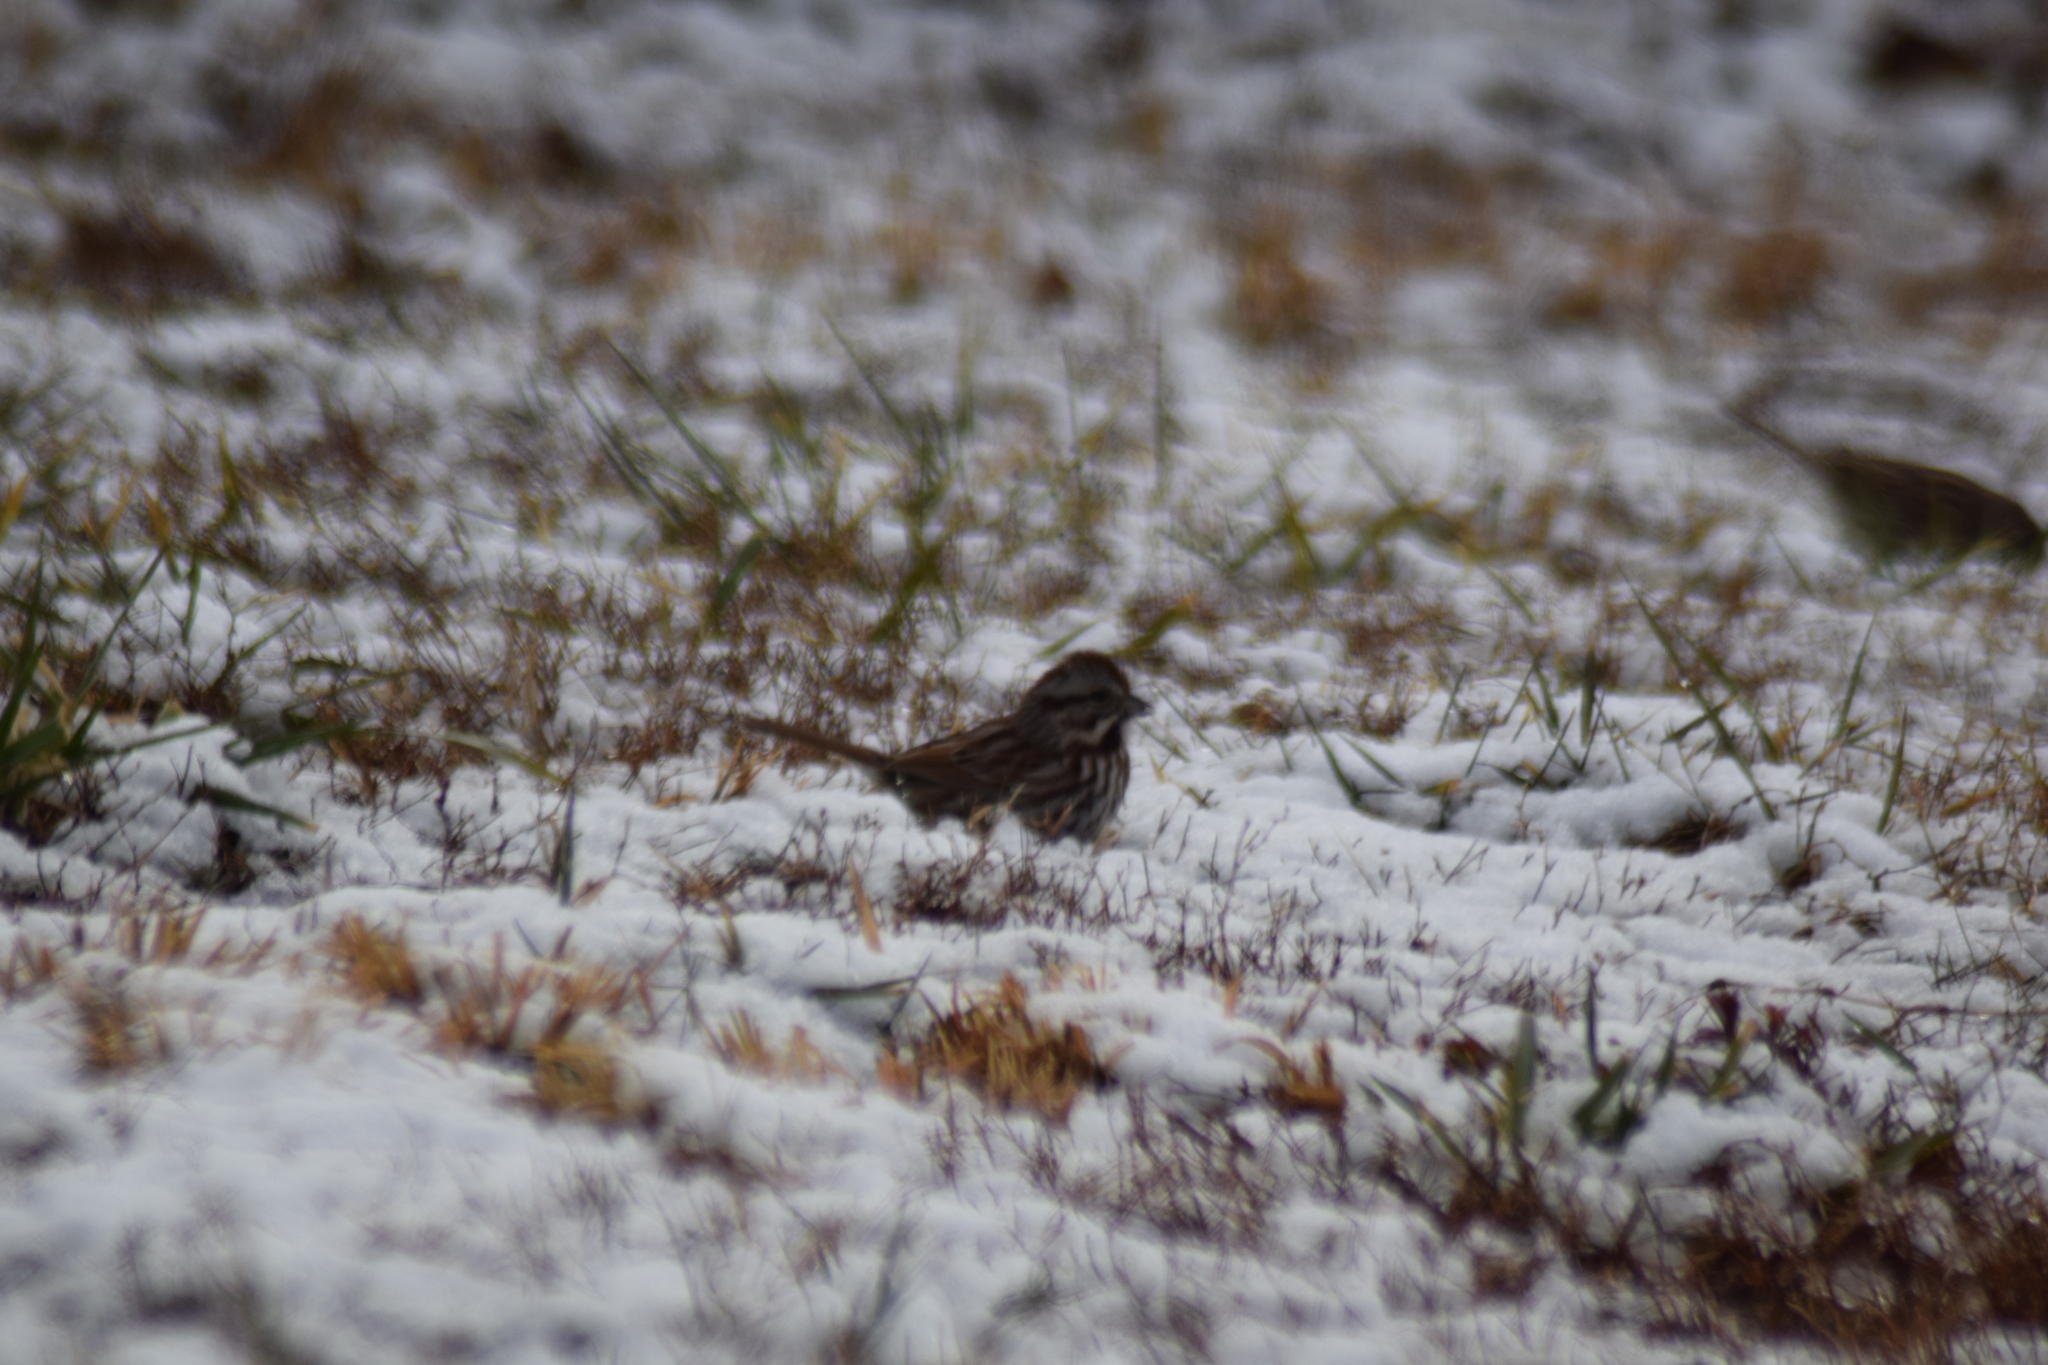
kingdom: Animalia
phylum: Chordata
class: Aves
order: Passeriformes
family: Passerellidae
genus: Melospiza
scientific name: Melospiza melodia
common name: Song sparrow
